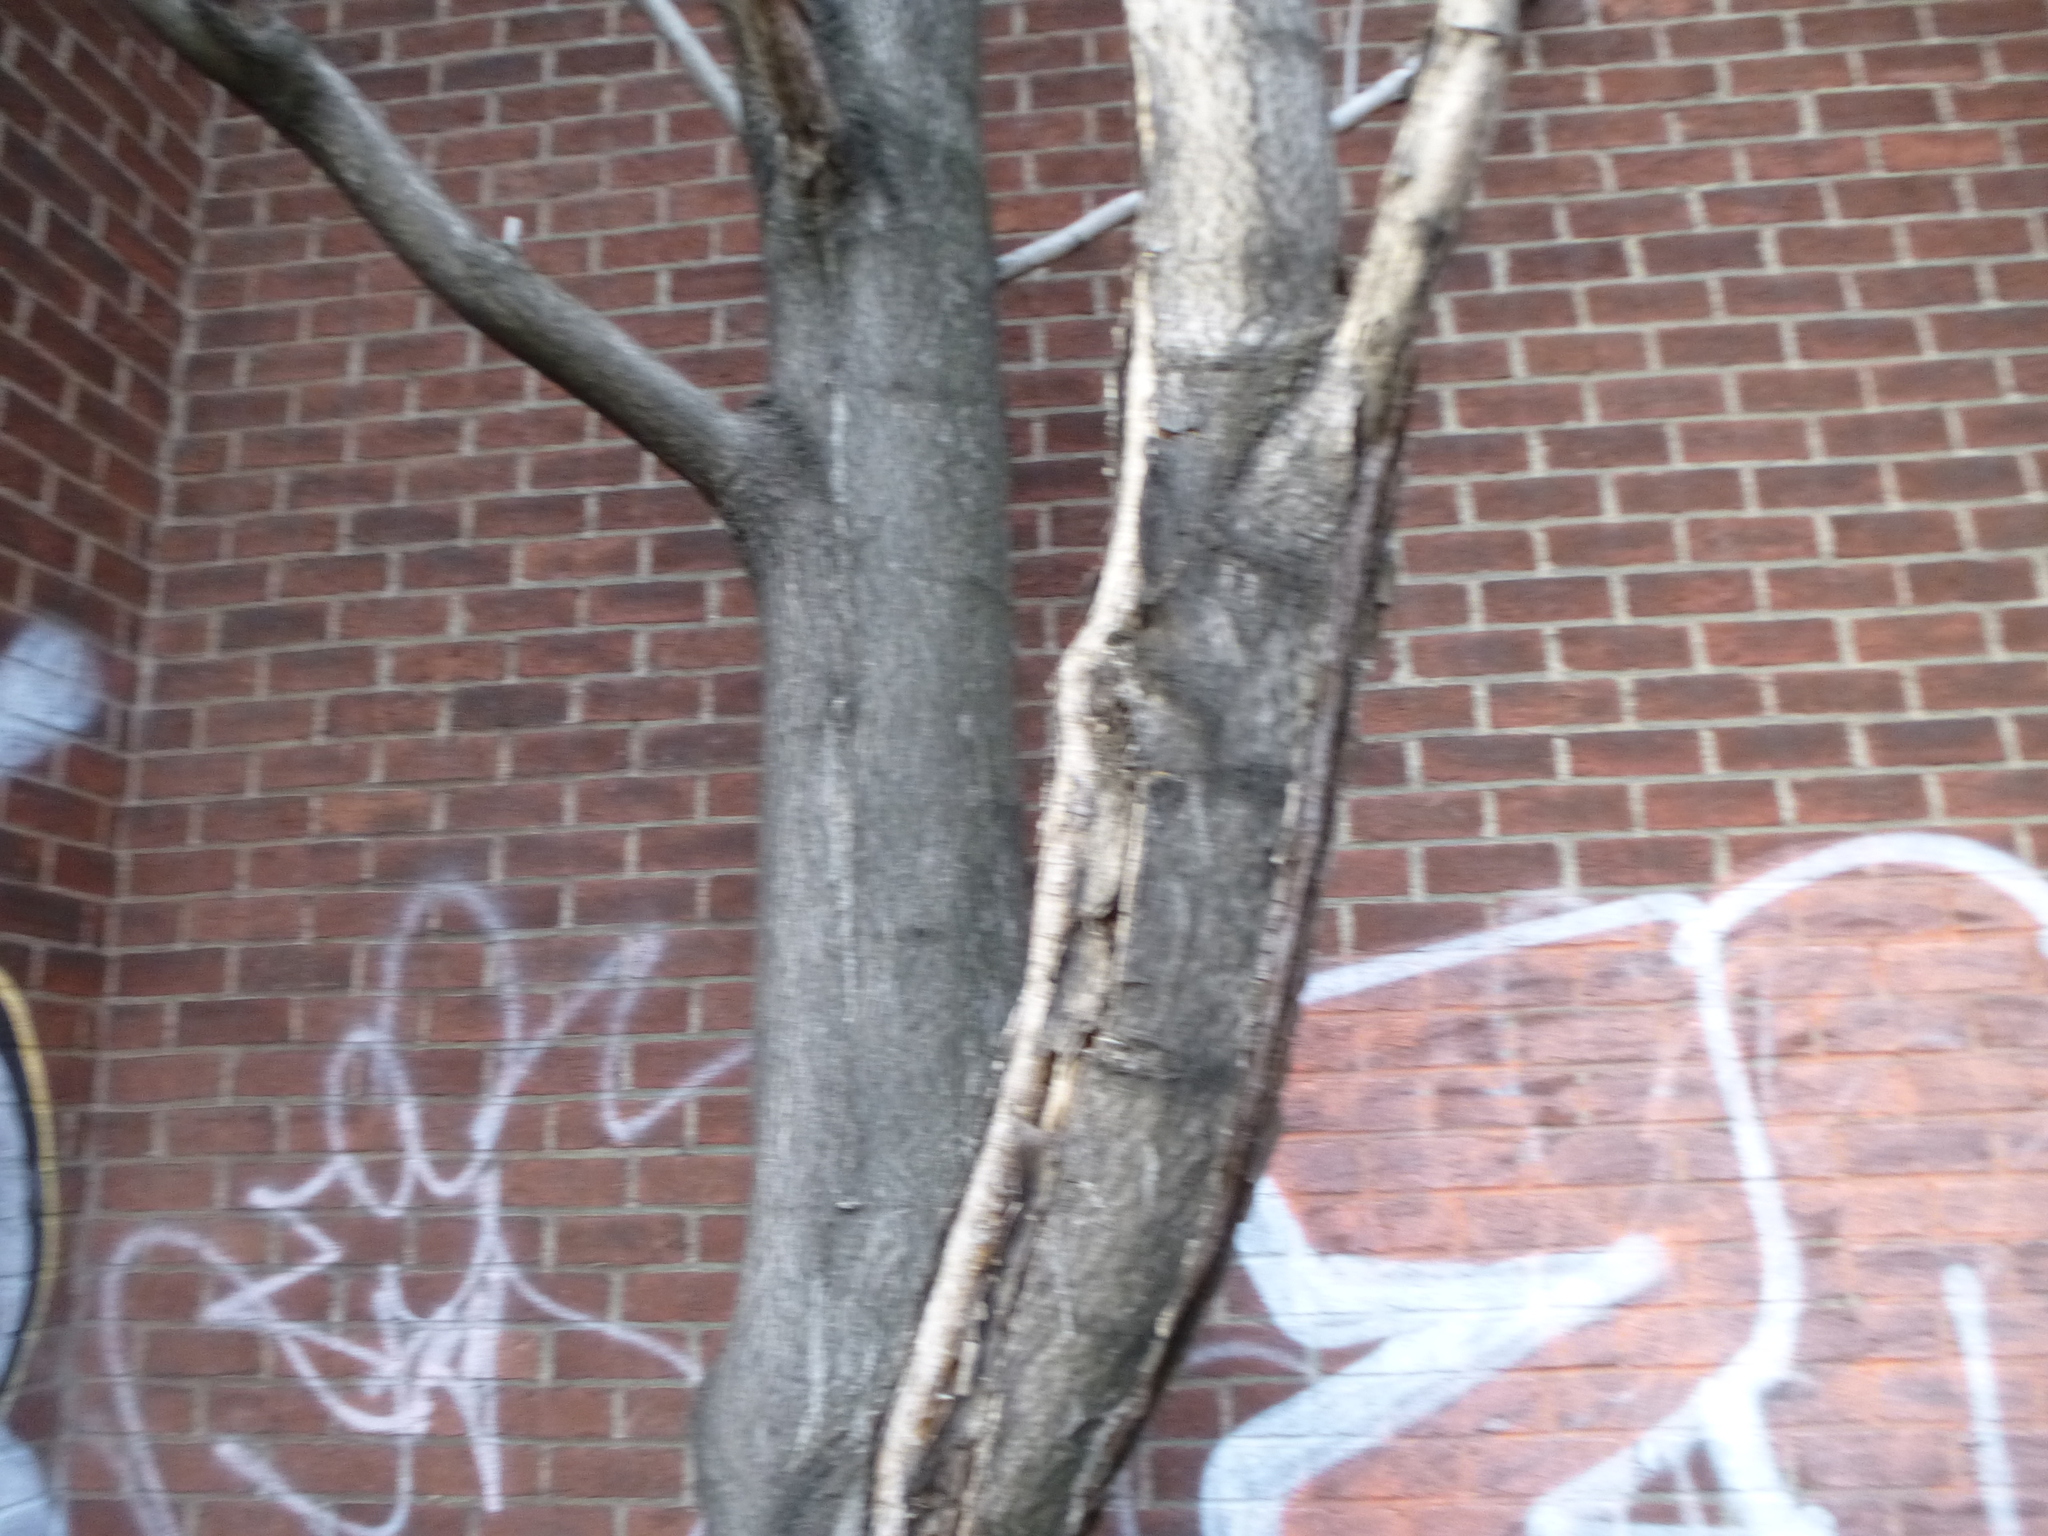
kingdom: Plantae
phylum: Tracheophyta
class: Magnoliopsida
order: Sapindales
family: Simaroubaceae
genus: Ailanthus
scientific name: Ailanthus altissima
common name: Tree-of-heaven
